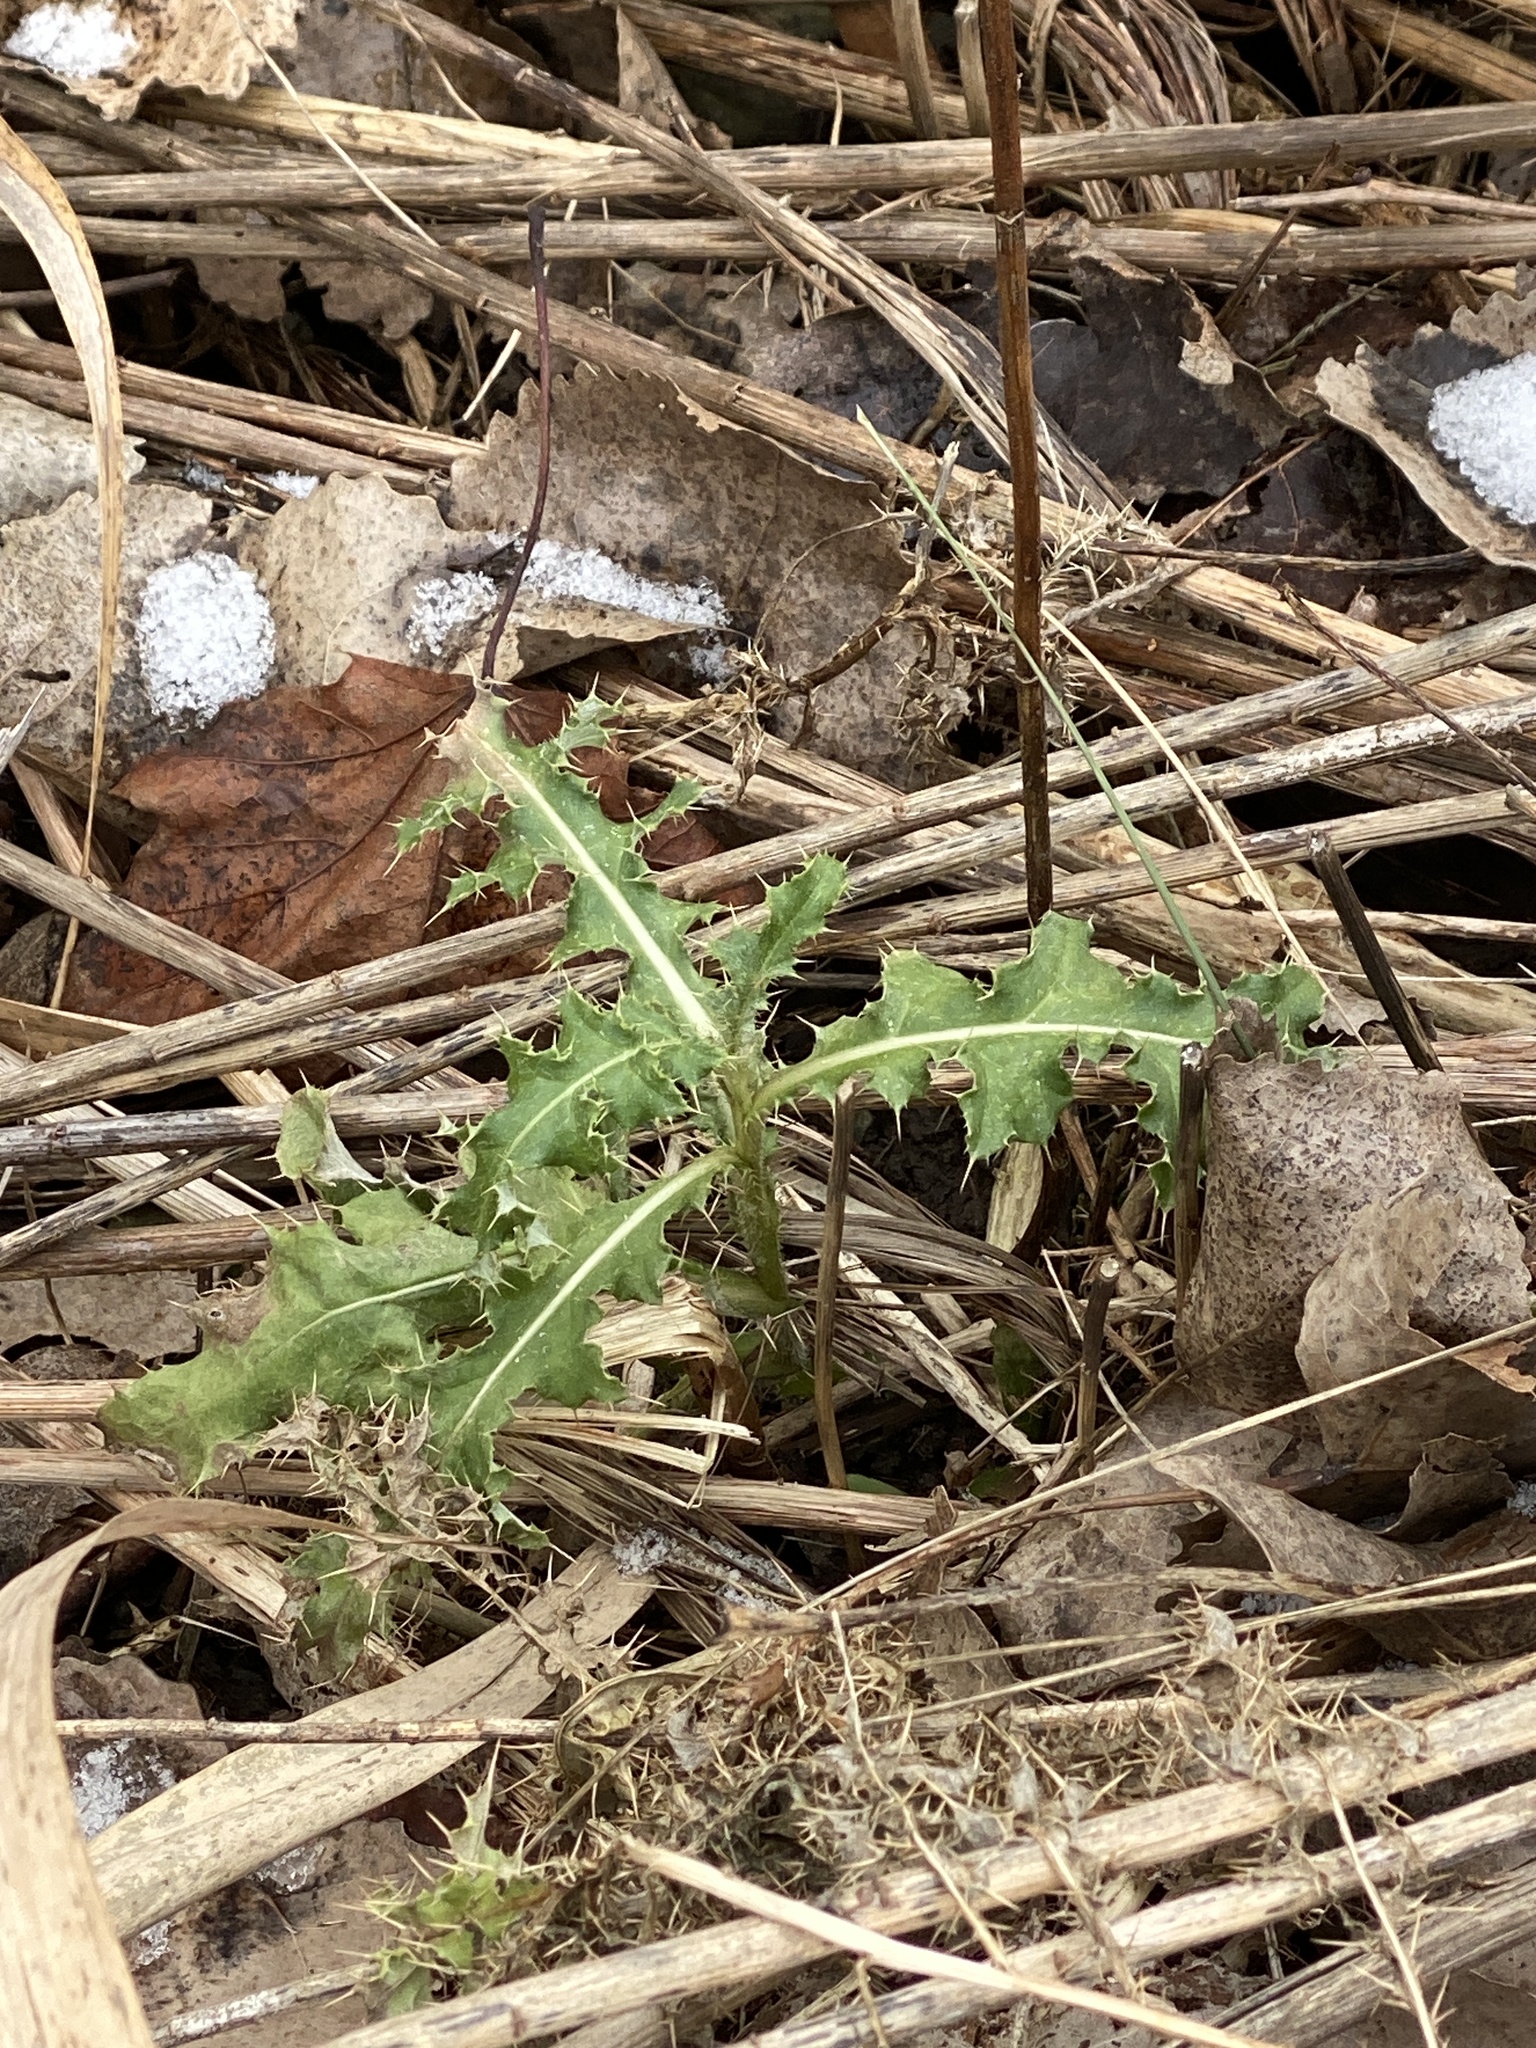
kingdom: Plantae
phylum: Tracheophyta
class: Magnoliopsida
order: Asterales
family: Asteraceae
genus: Cirsium
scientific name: Cirsium arvense
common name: Creeping thistle
